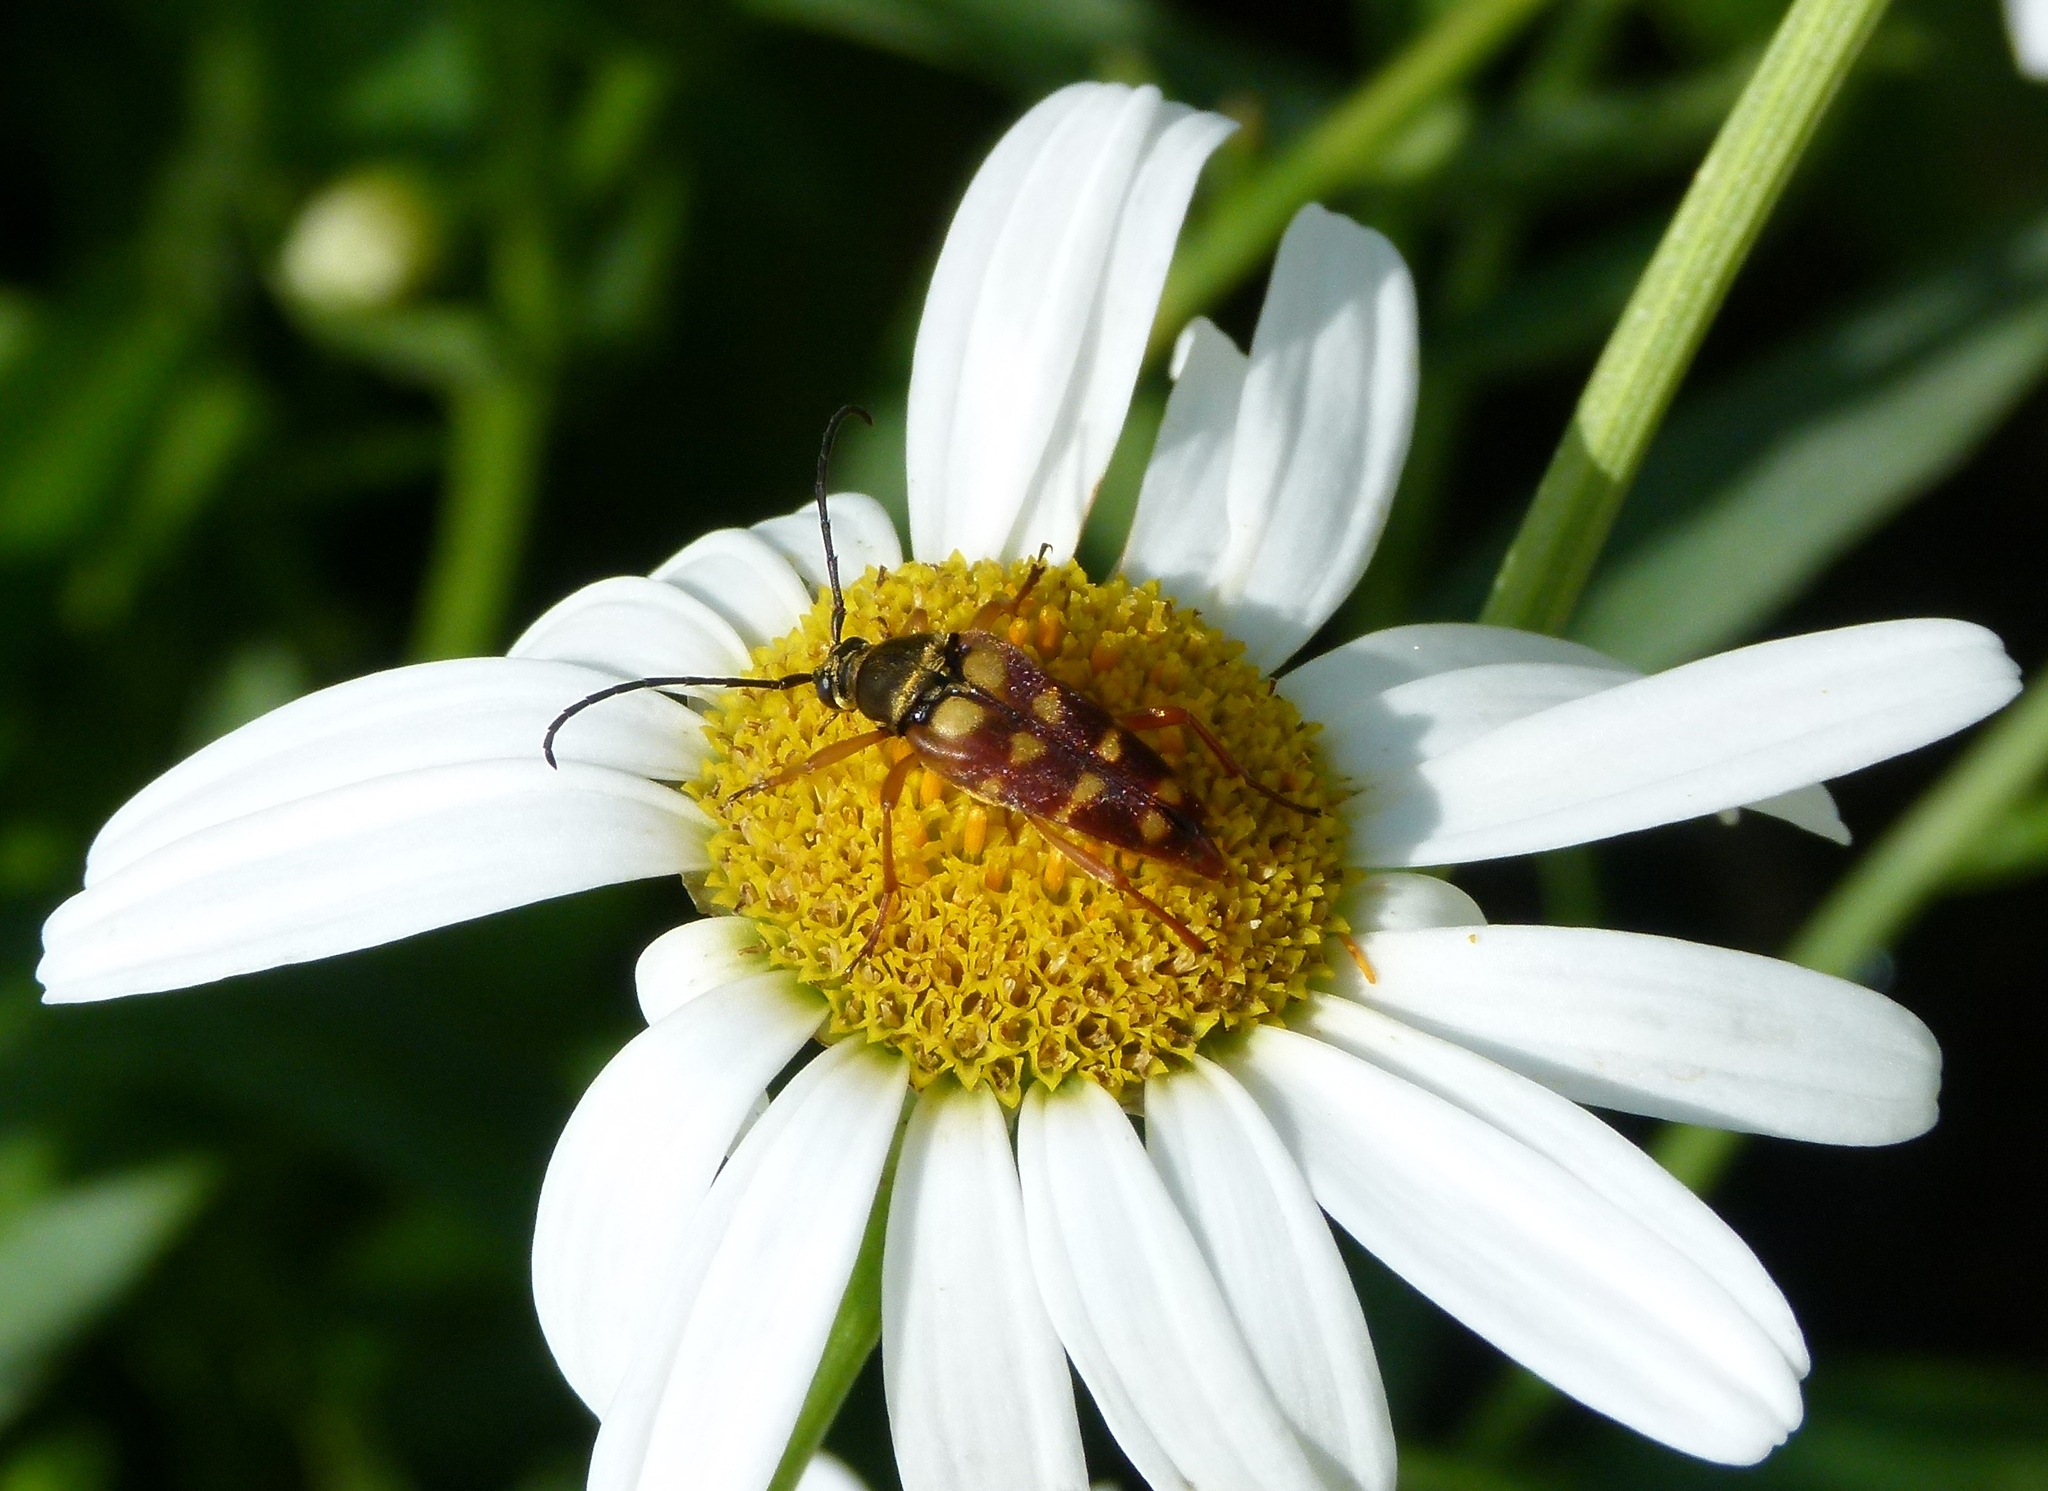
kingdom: Animalia
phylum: Arthropoda
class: Insecta
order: Coleoptera
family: Cerambycidae
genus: Typocerus
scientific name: Typocerus velutinus
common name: Banded longhorn beetle
